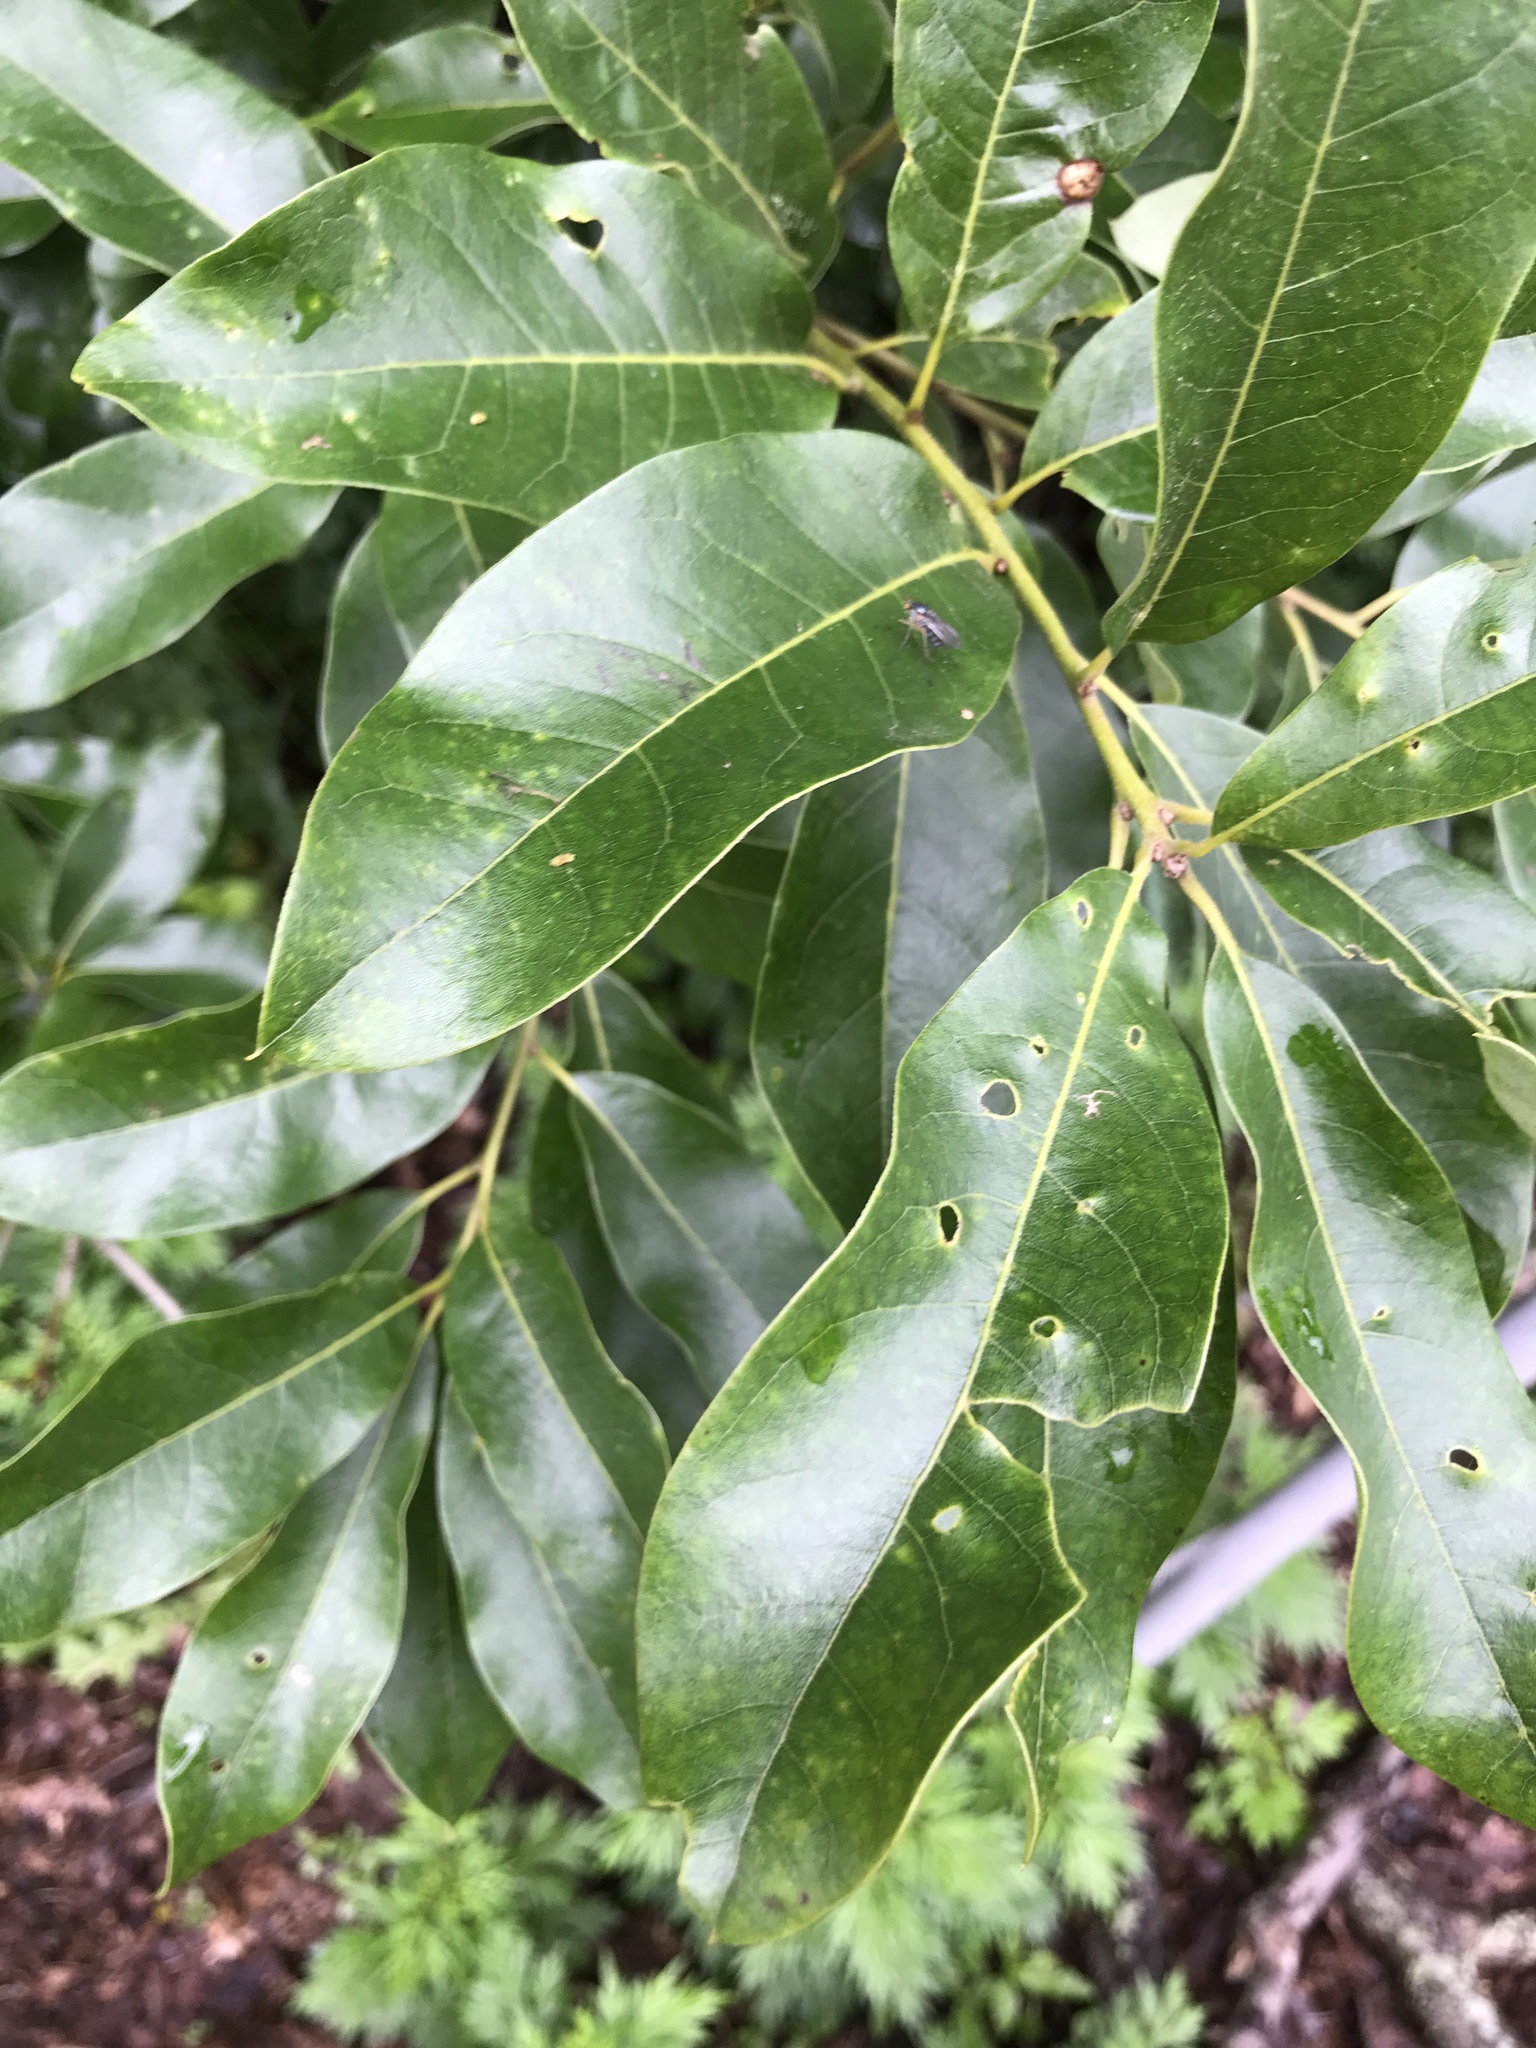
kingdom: Plantae
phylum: Tracheophyta
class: Magnoliopsida
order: Fagales
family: Fagaceae
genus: Quercus
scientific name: Quercus imbricaria
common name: Shingle oak
